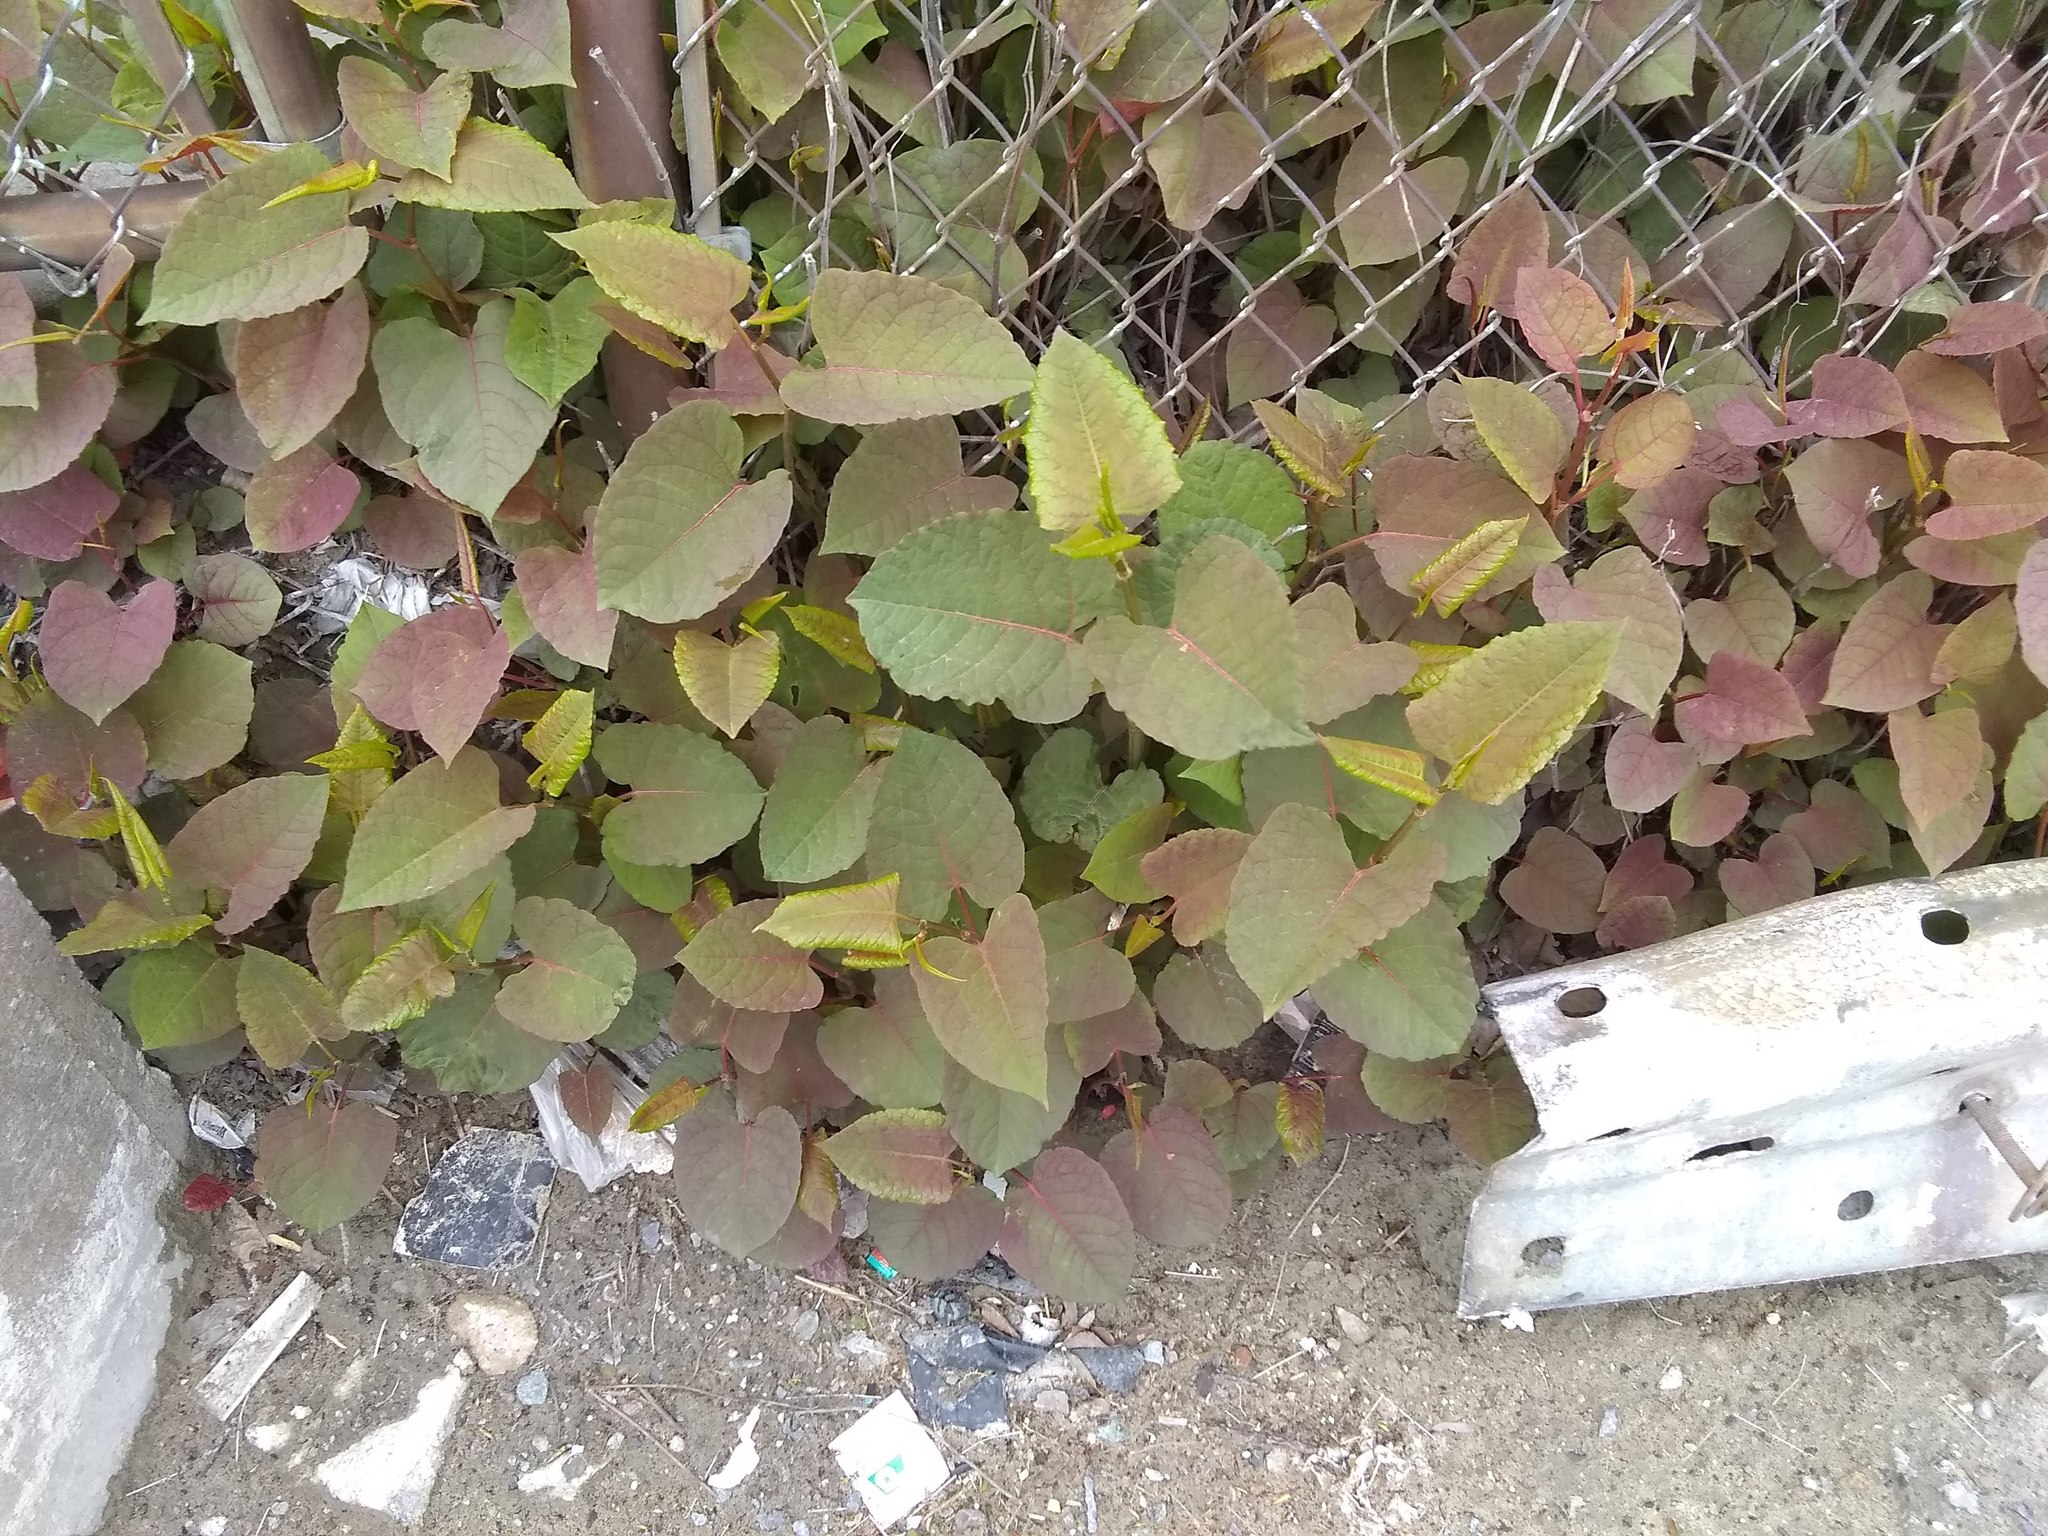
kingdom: Plantae
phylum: Tracheophyta
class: Magnoliopsida
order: Caryophyllales
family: Polygonaceae
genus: Reynoutria
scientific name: Reynoutria japonica
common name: Japanese knotweed
